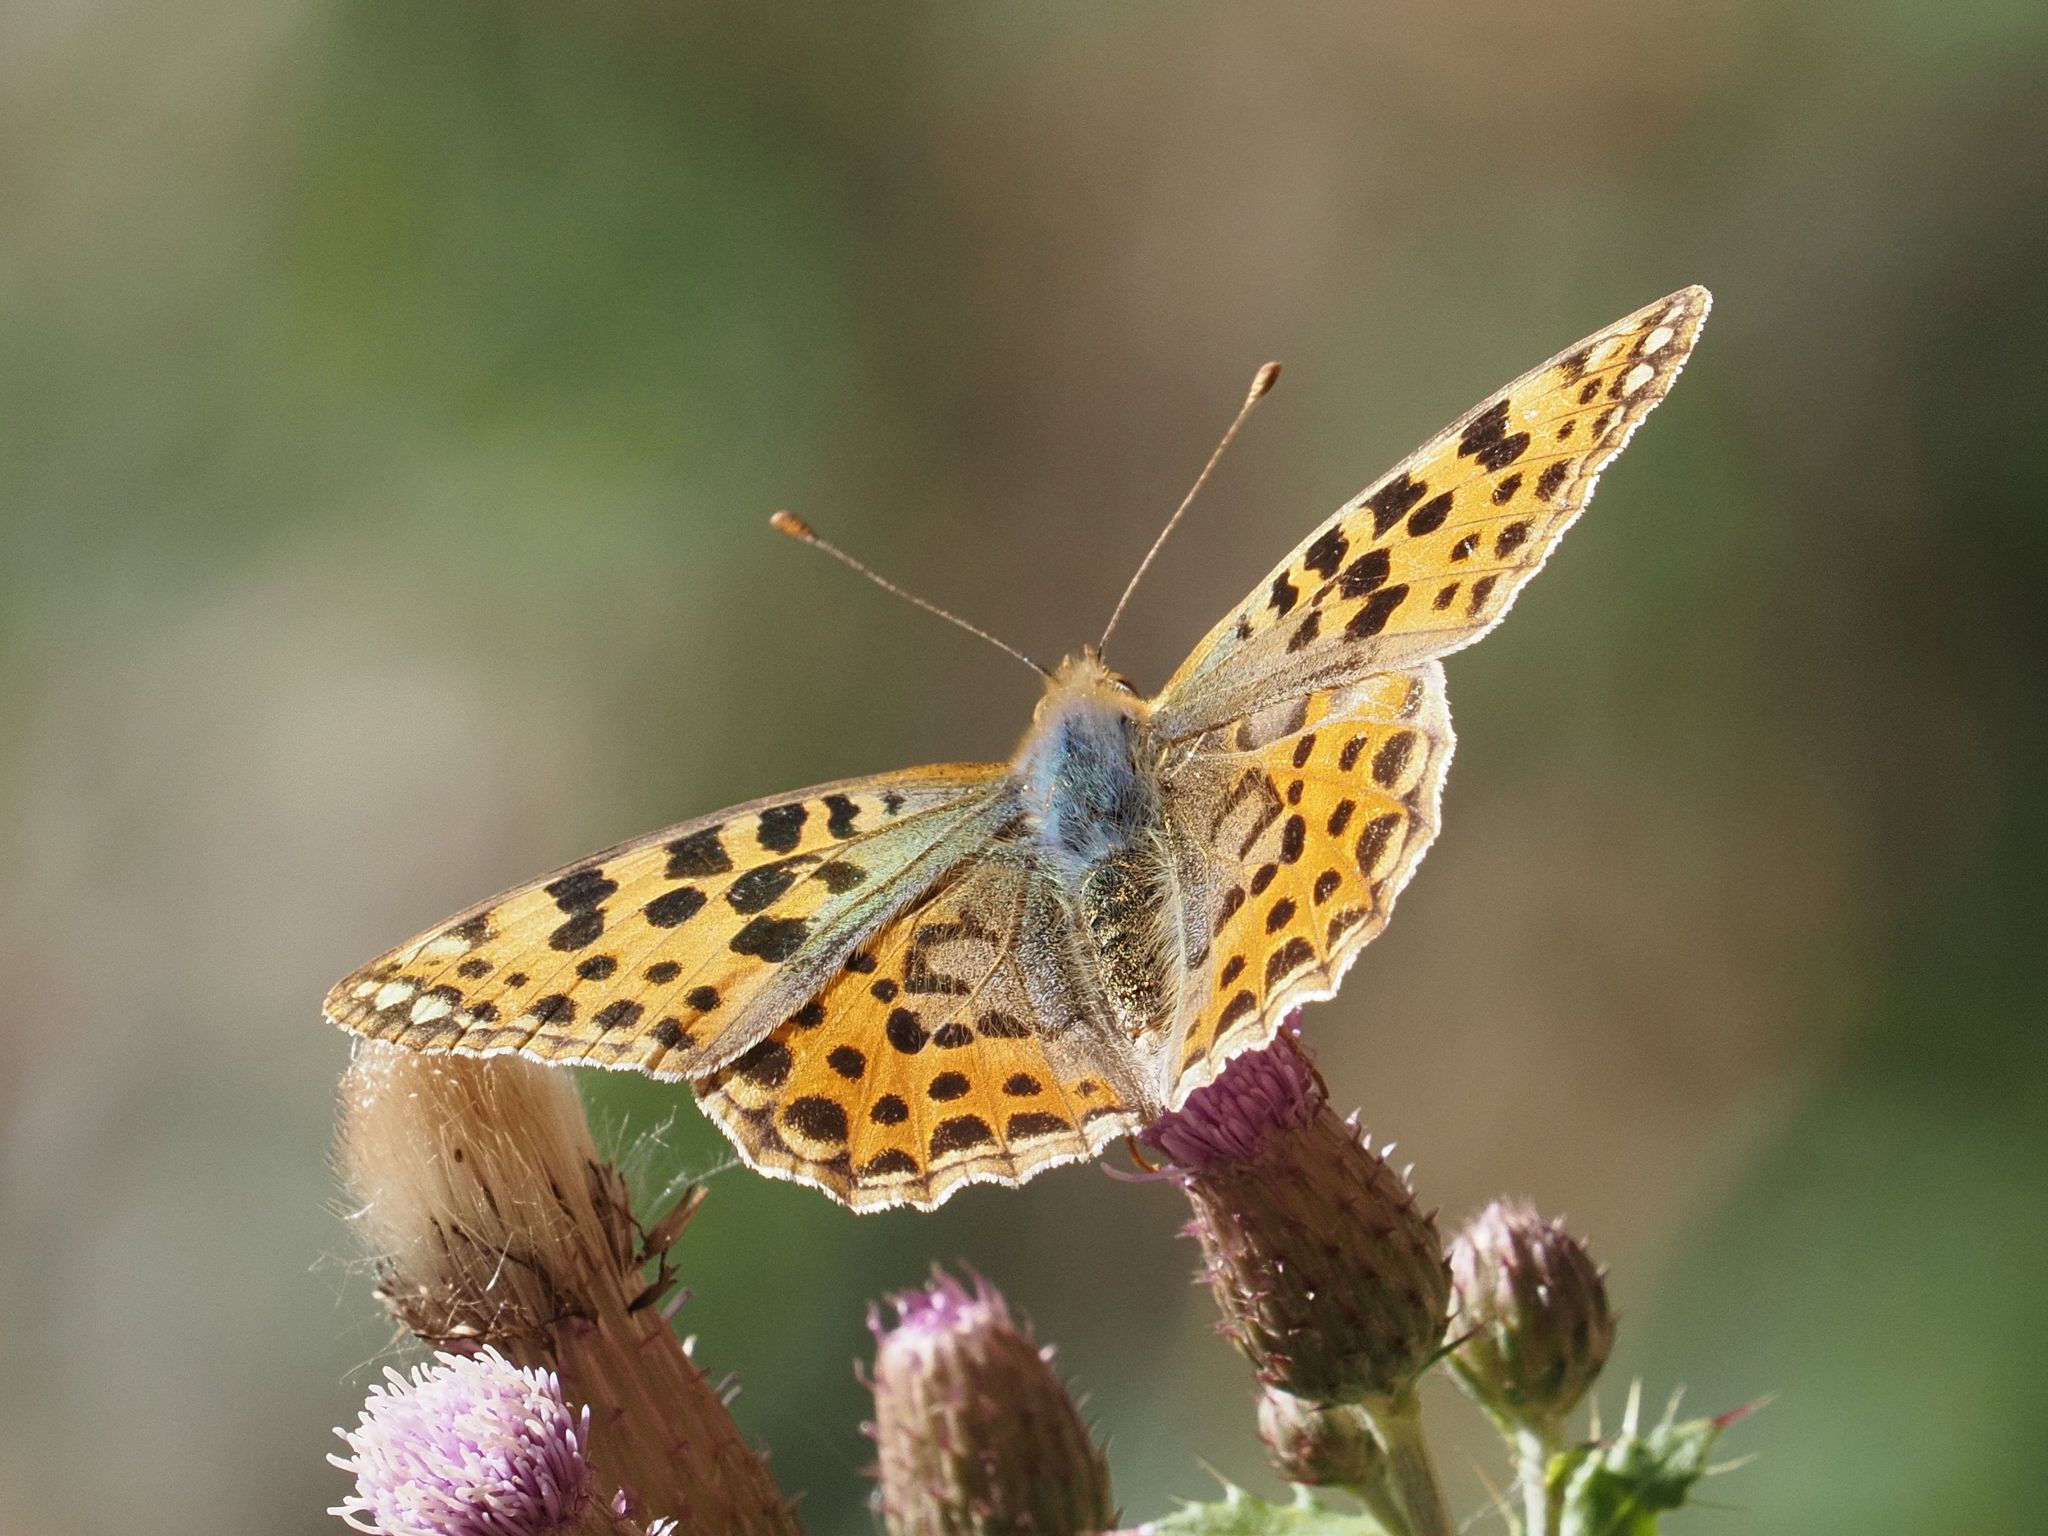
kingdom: Animalia
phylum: Arthropoda
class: Insecta
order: Lepidoptera
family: Nymphalidae
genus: Issoria
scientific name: Issoria lathonia
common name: Queen of spain fritillary
